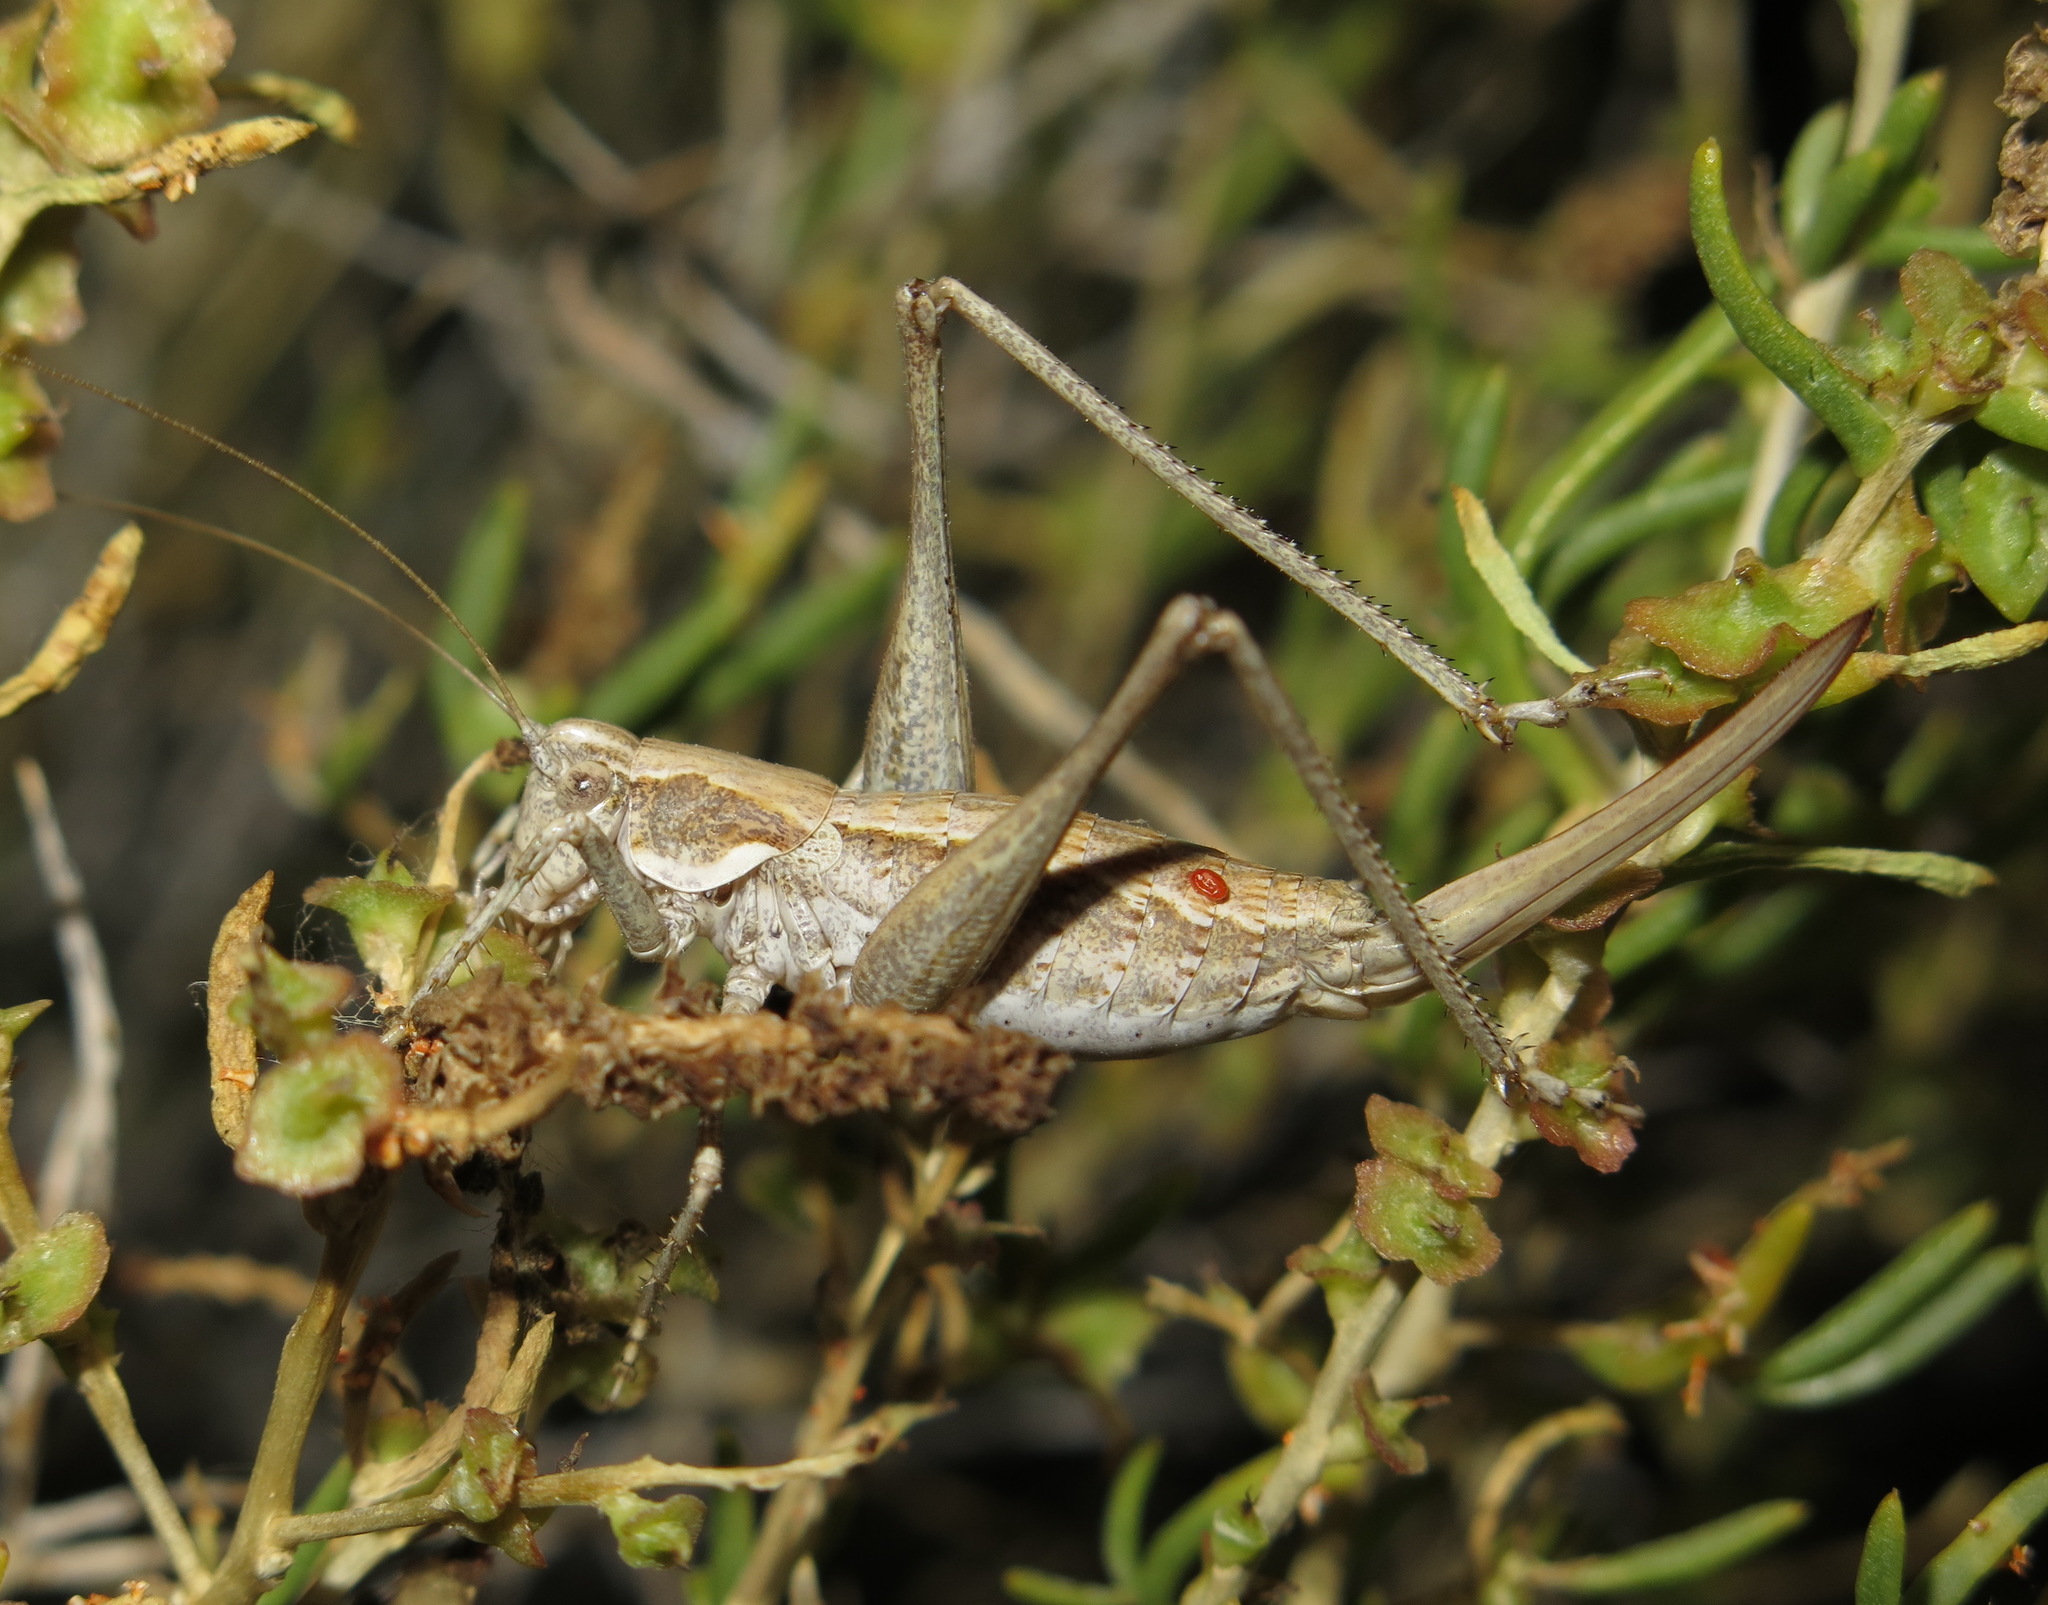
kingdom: Animalia
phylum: Arthropoda
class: Insecta
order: Orthoptera
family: Tettigoniidae
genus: Idiostatus
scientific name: Idiostatus apollo
